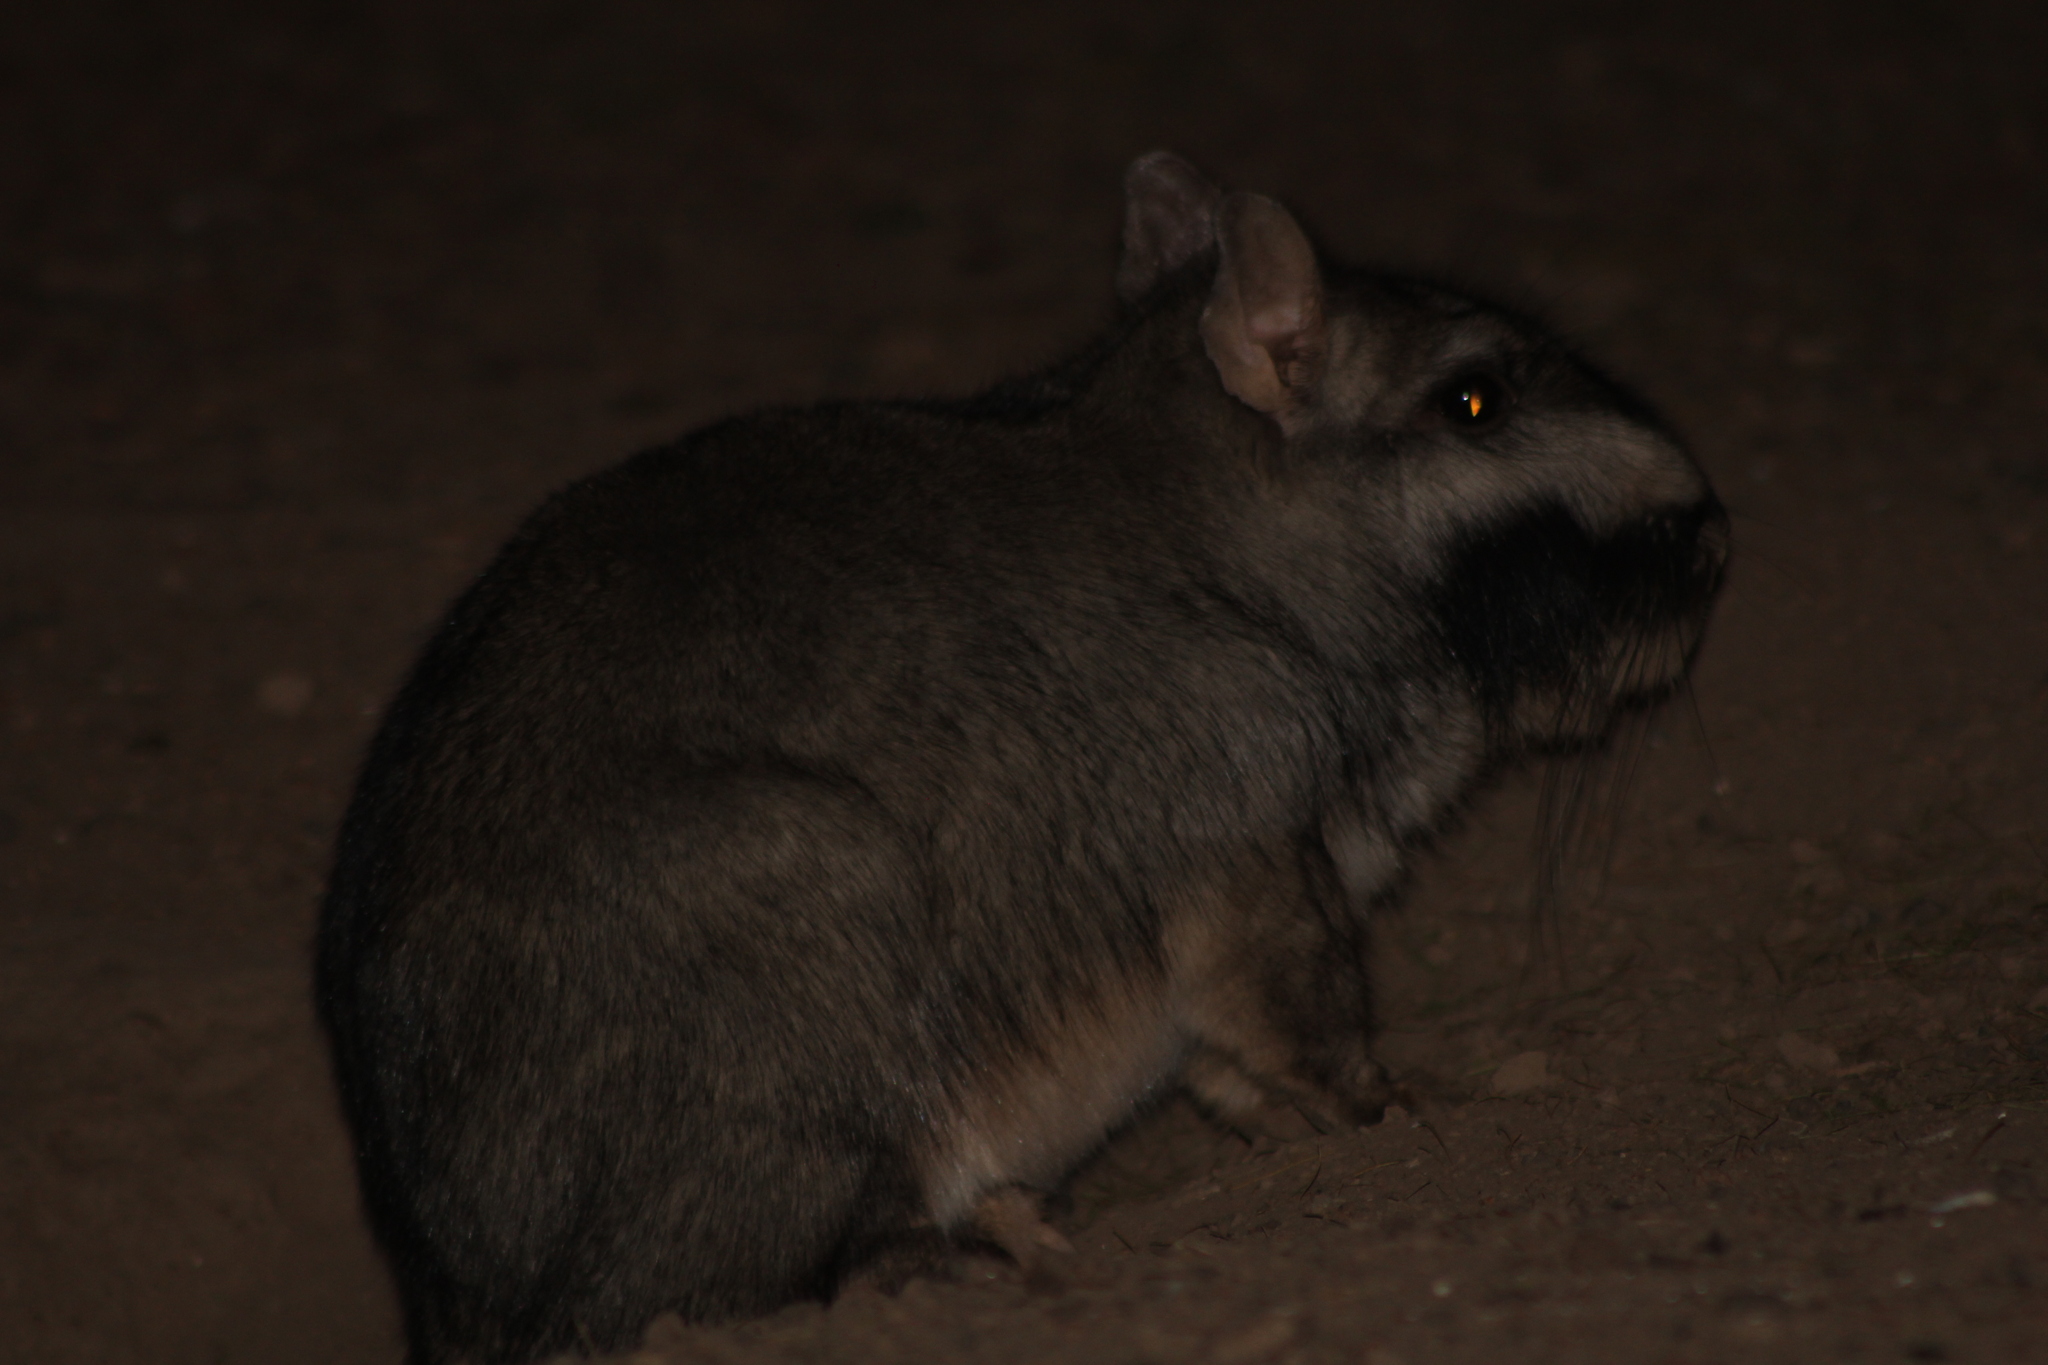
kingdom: Animalia
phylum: Chordata
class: Mammalia
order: Rodentia
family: Chinchillidae
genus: Lagostomus
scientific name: Lagostomus maximus
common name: Plains viscacha
